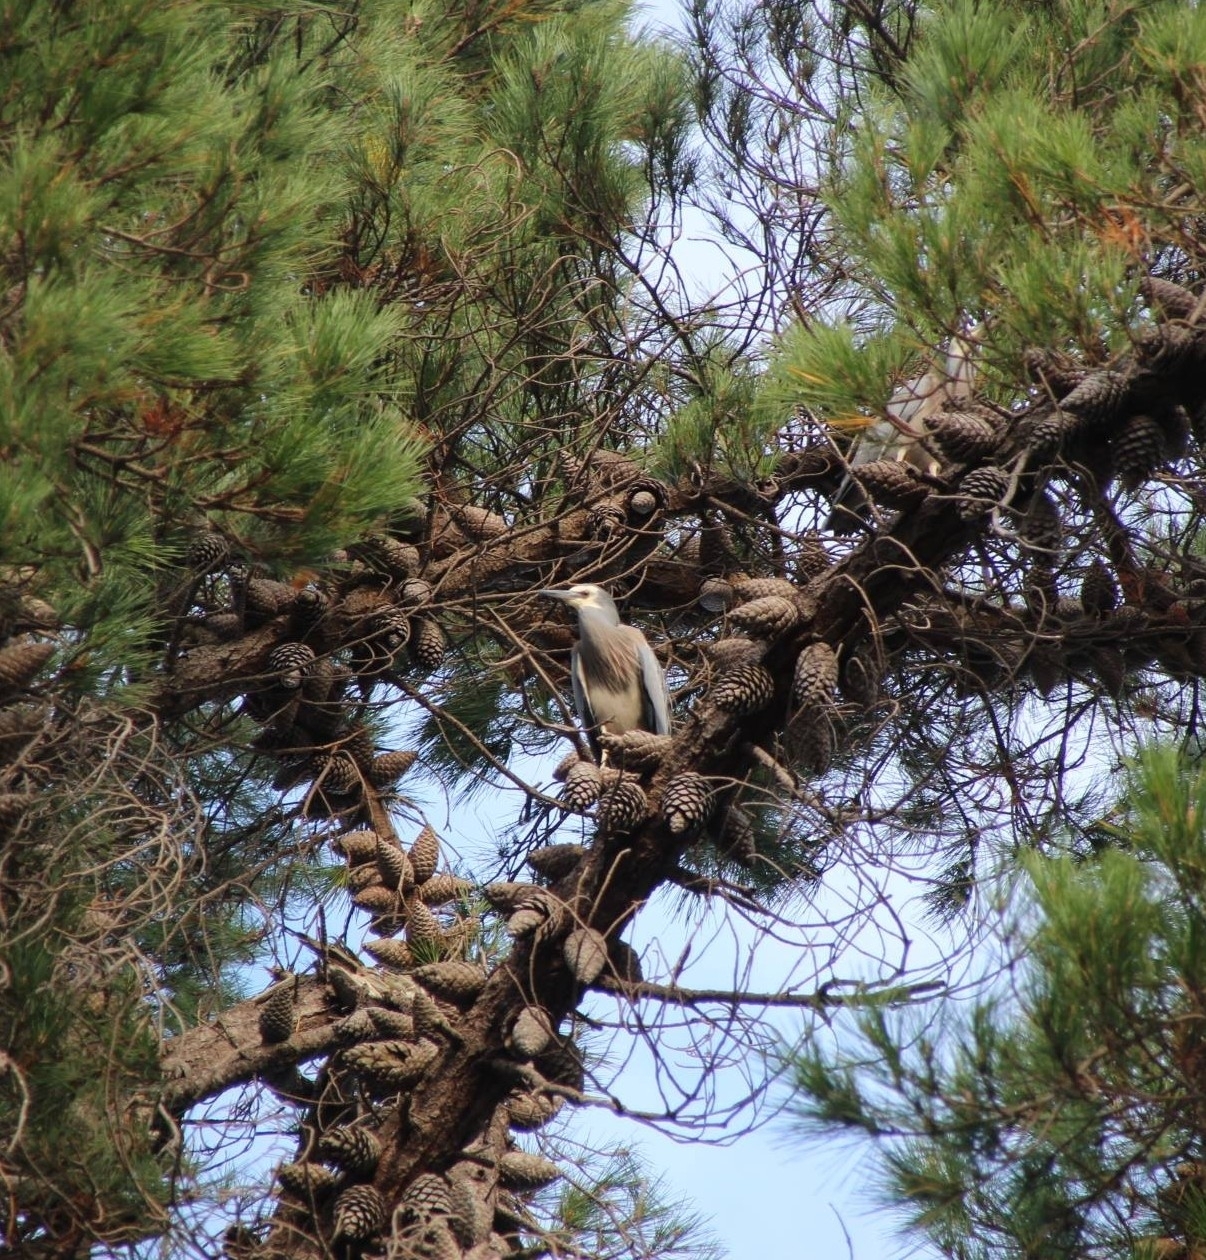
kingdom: Animalia
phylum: Chordata
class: Aves
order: Pelecaniformes
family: Ardeidae
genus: Egretta
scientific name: Egretta novaehollandiae
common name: White-faced heron
